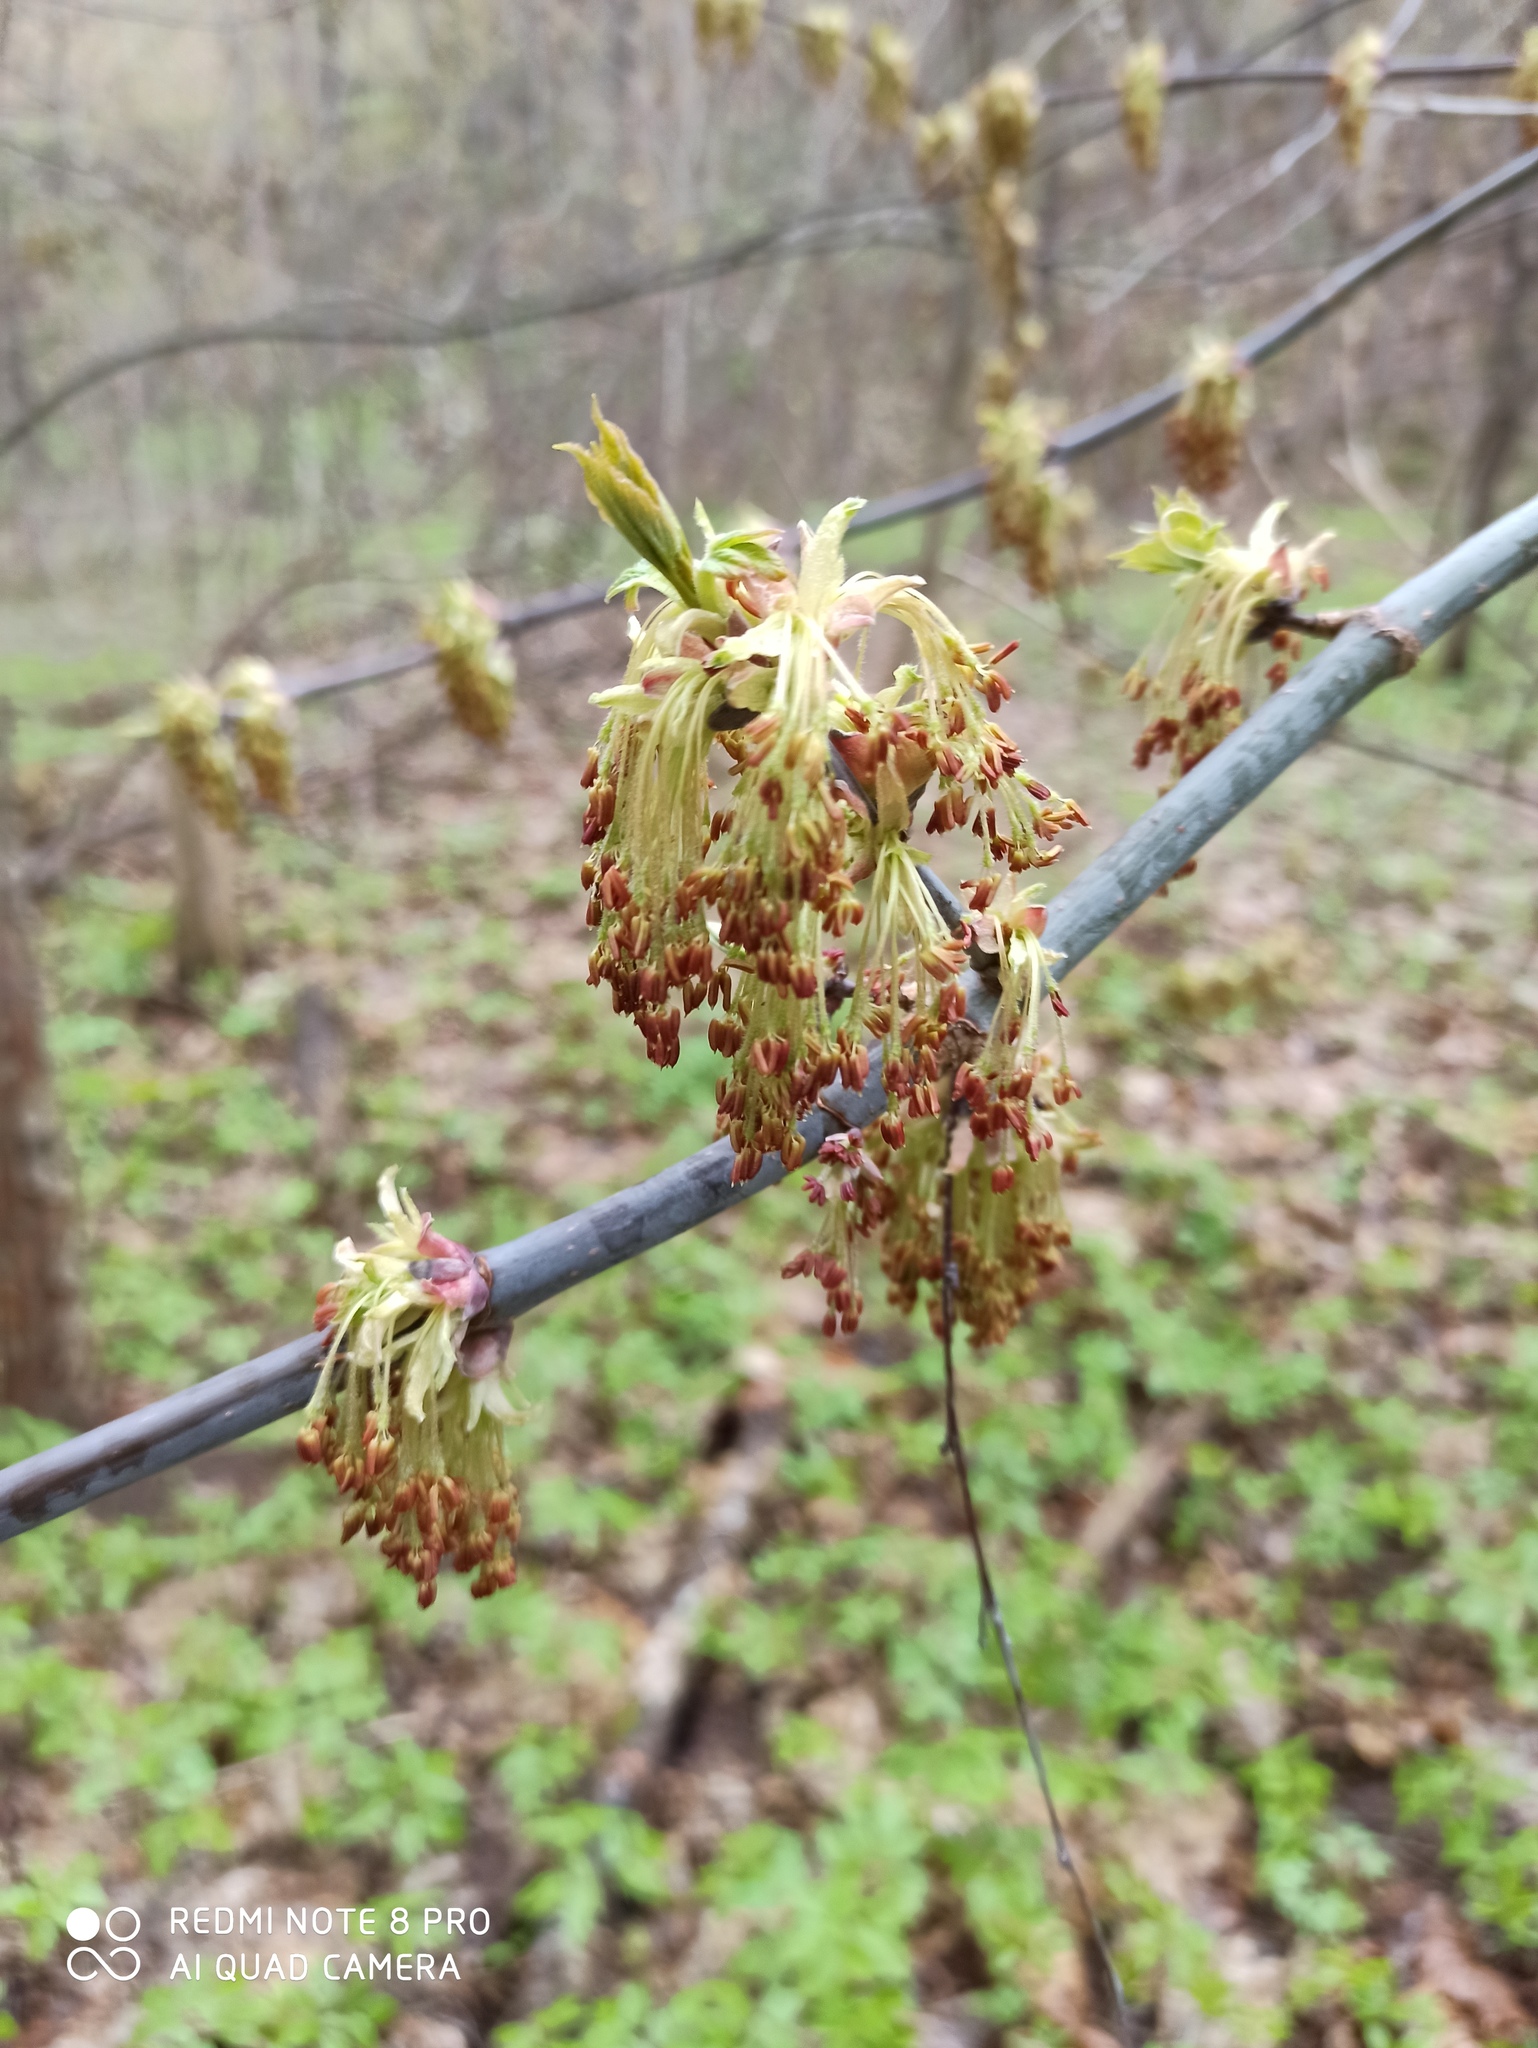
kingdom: Plantae
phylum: Tracheophyta
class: Magnoliopsida
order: Sapindales
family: Sapindaceae
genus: Acer
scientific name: Acer negundo
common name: Ashleaf maple
